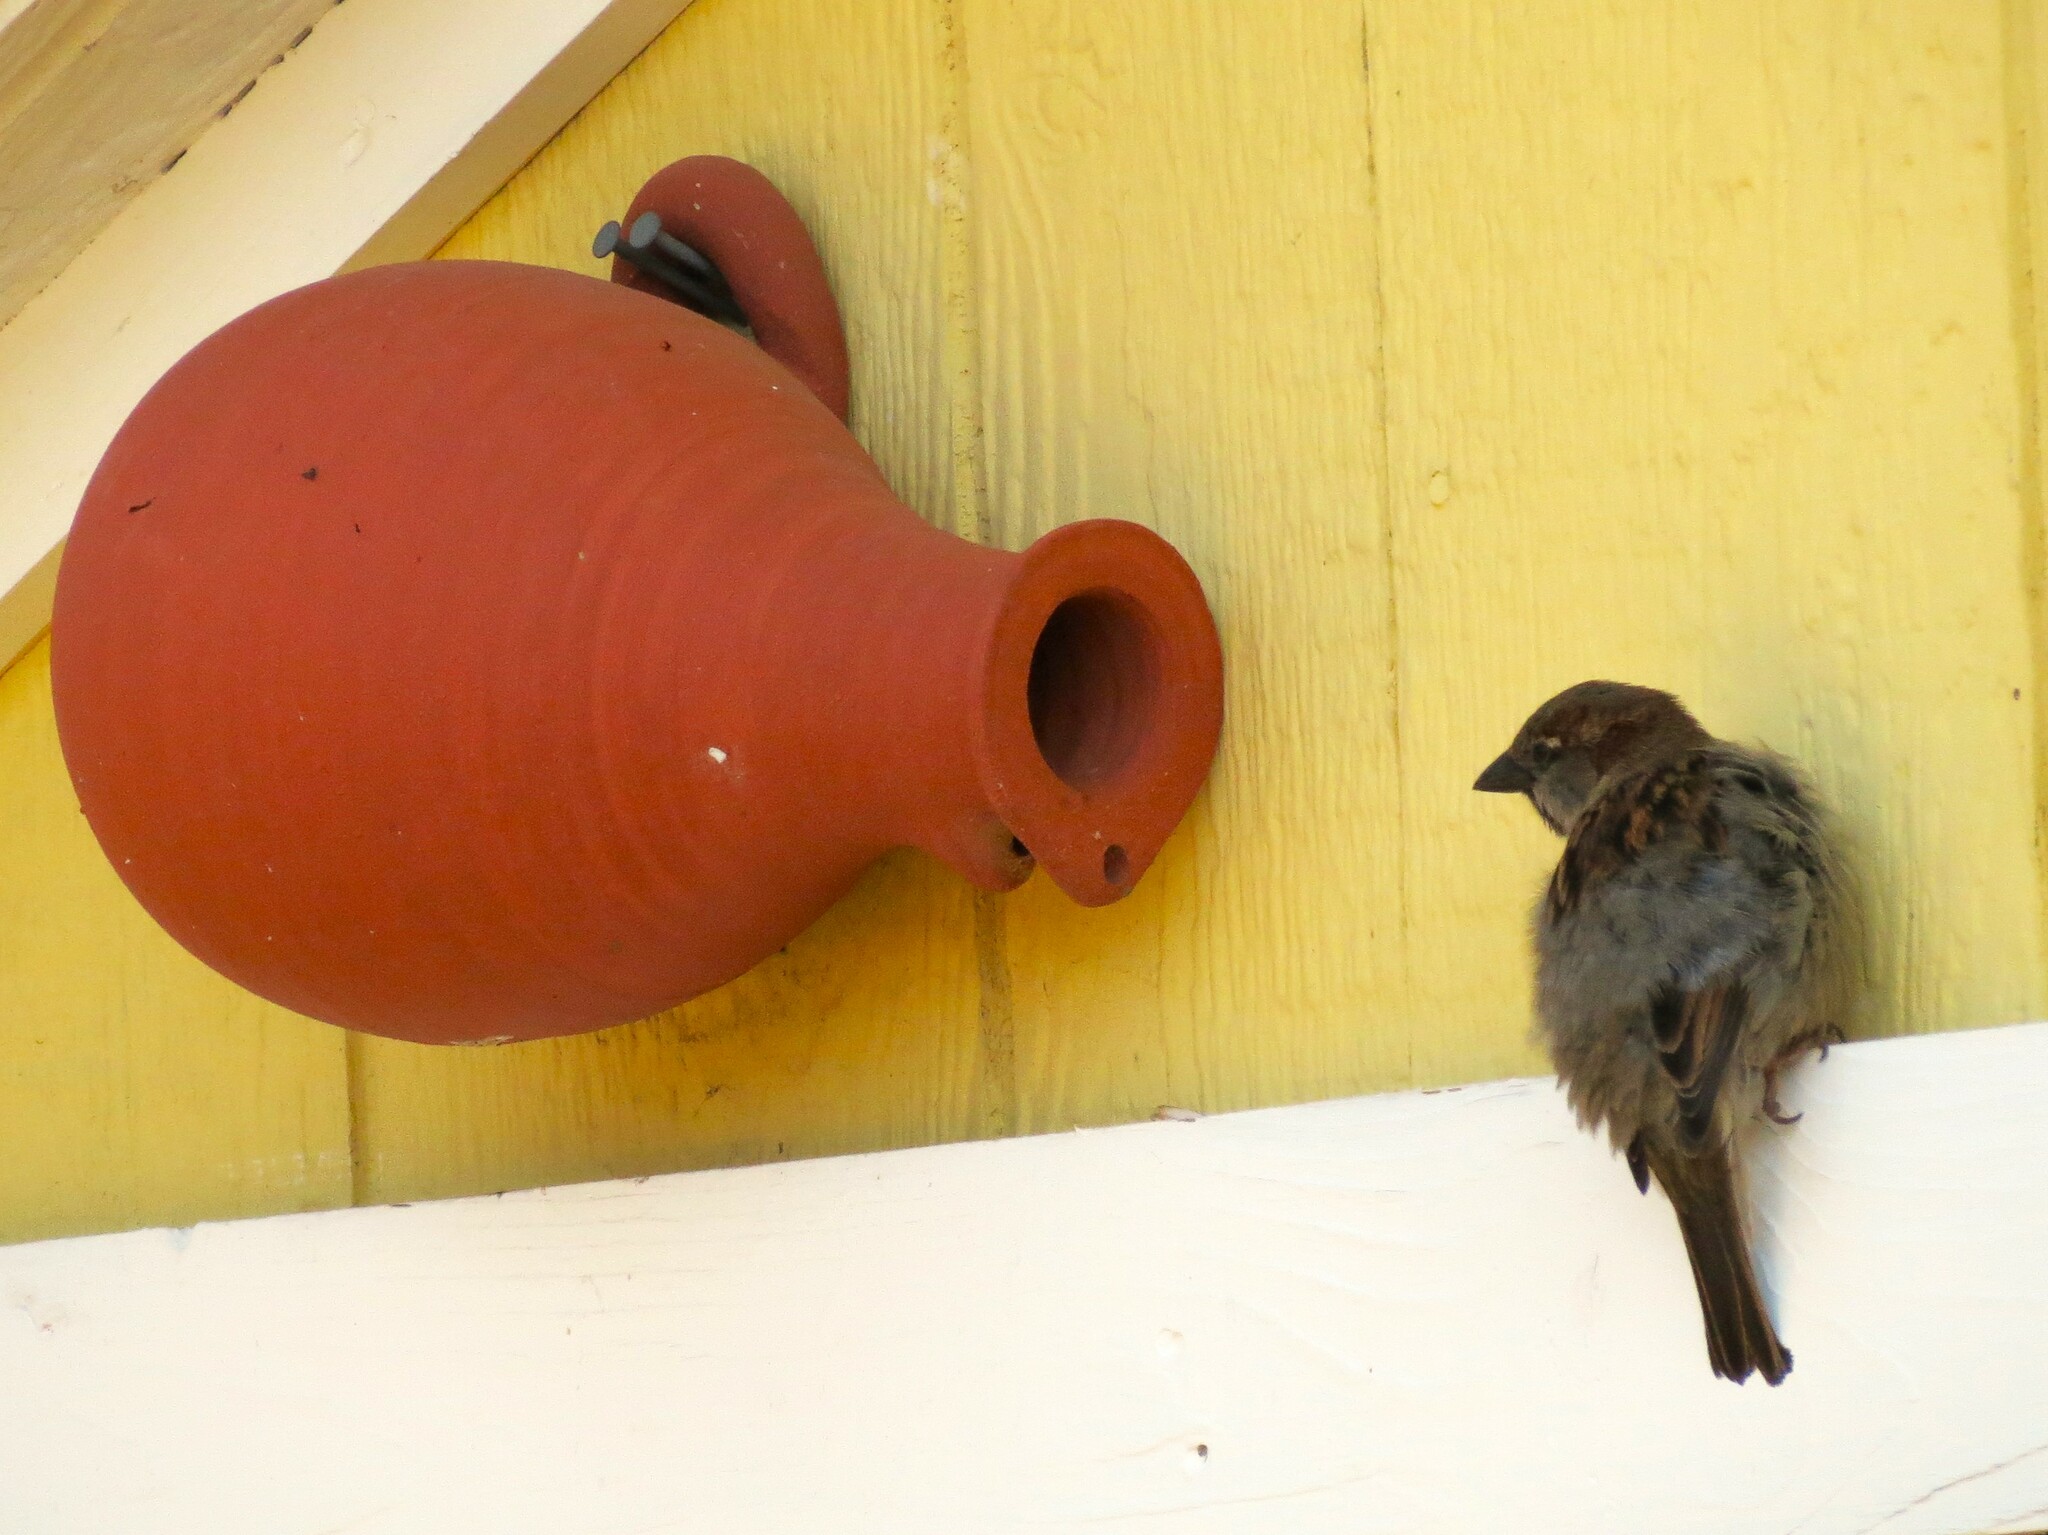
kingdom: Animalia
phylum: Chordata
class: Aves
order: Passeriformes
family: Passeridae
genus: Passer
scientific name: Passer domesticus
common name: House sparrow
